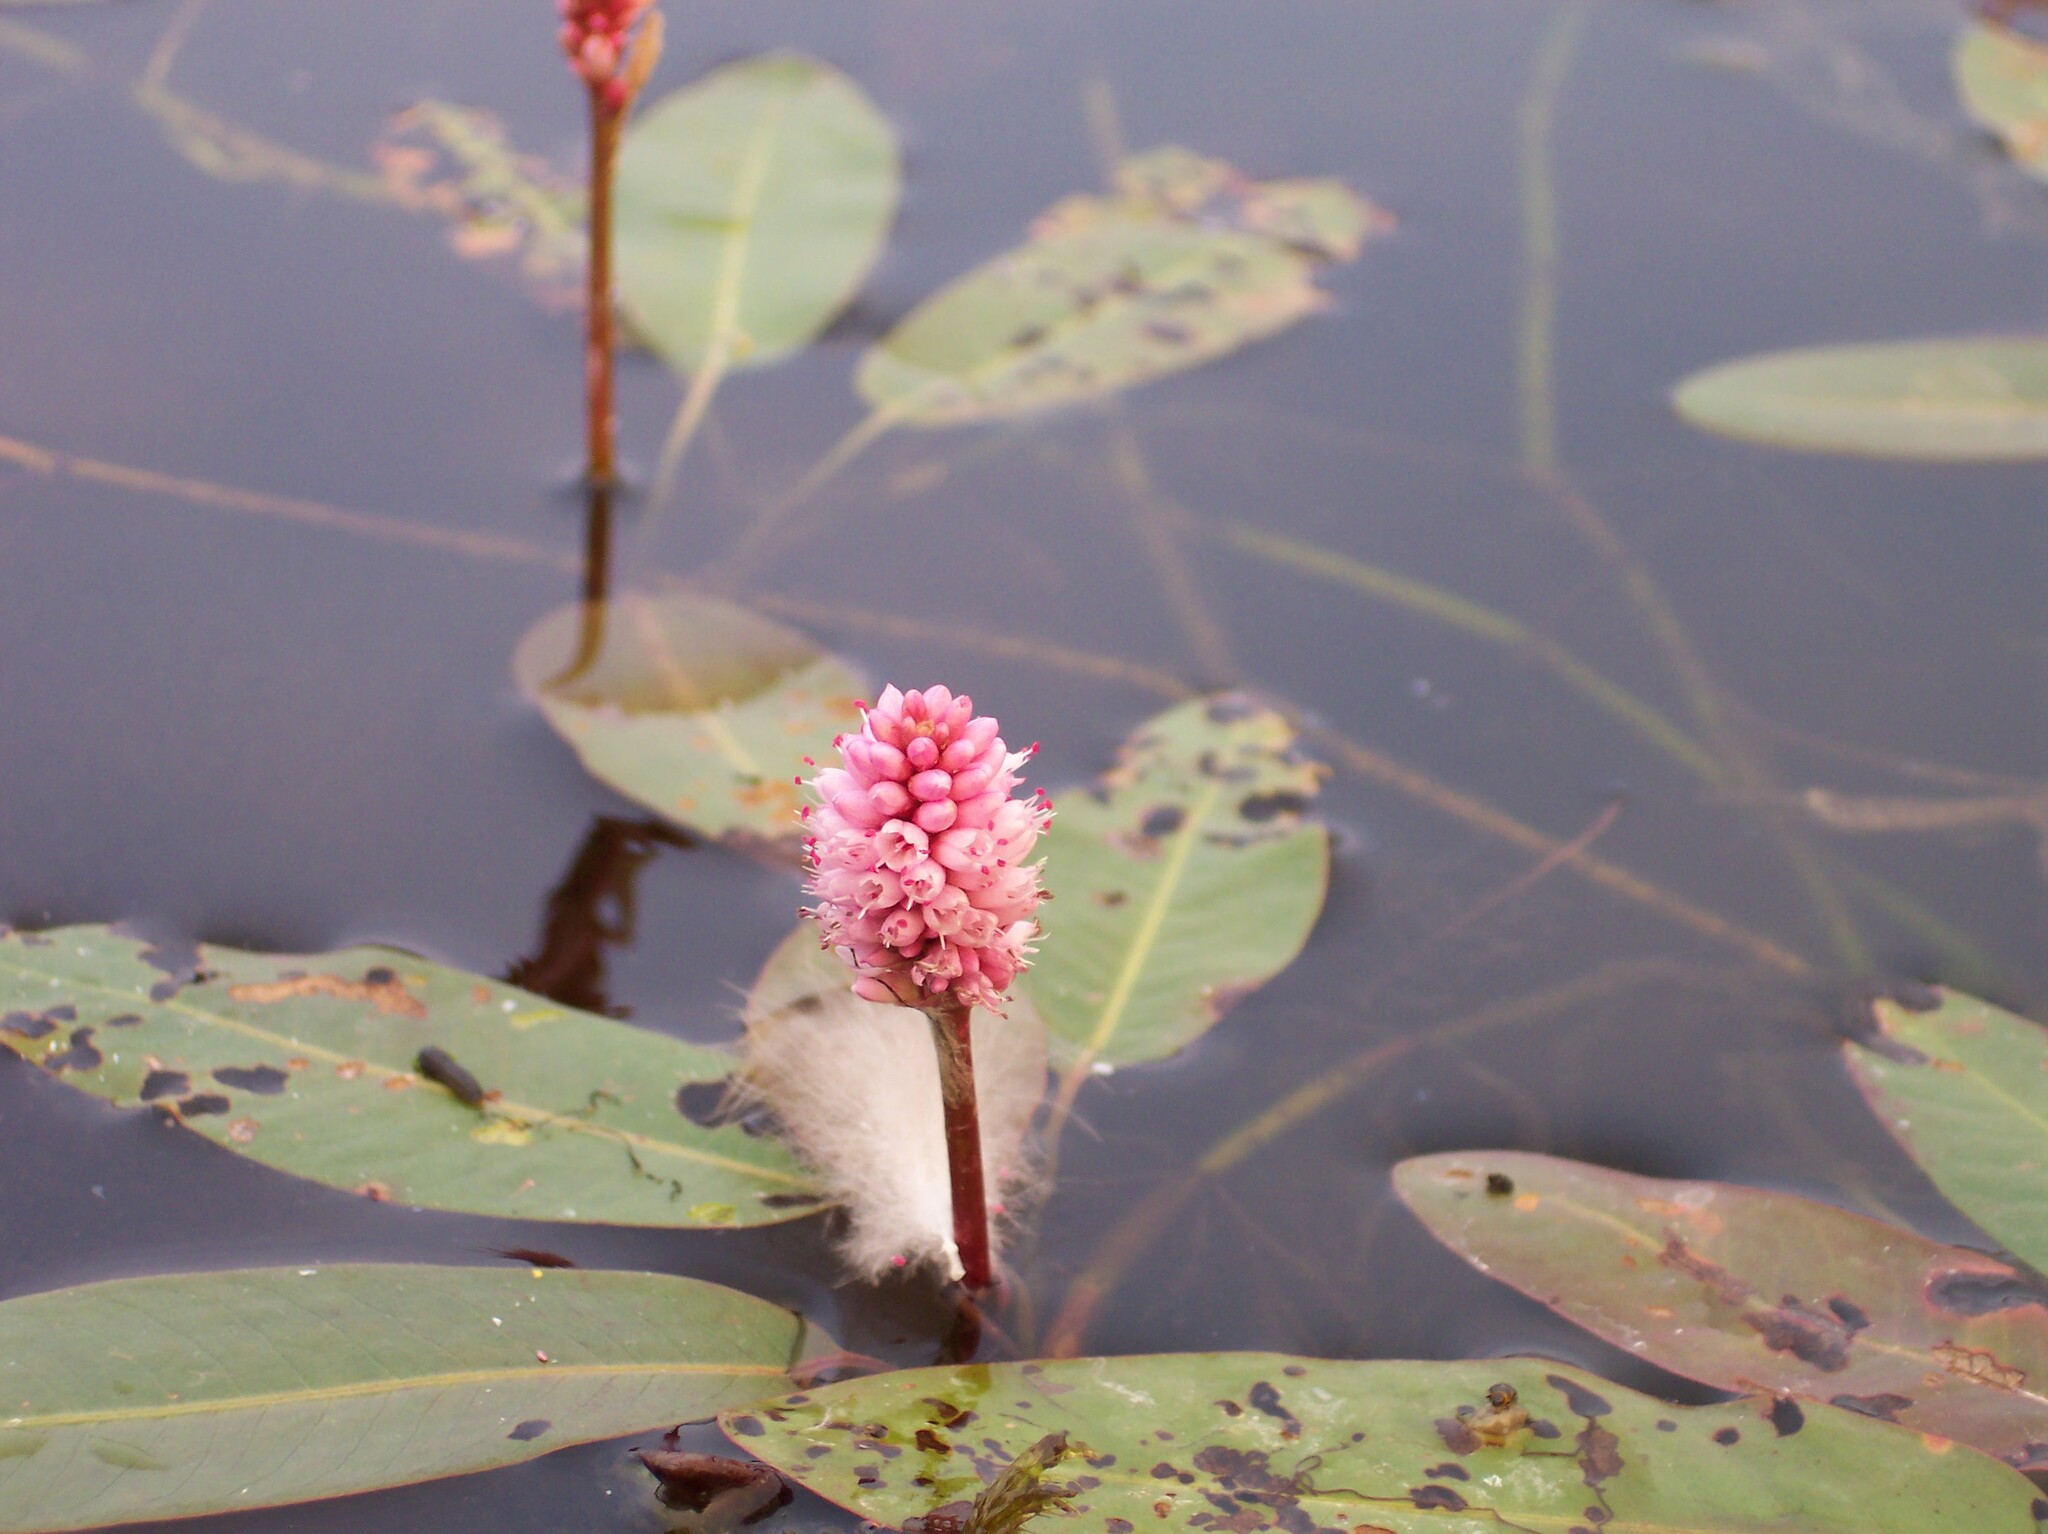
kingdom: Plantae
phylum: Tracheophyta
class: Magnoliopsida
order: Caryophyllales
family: Polygonaceae
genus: Persicaria
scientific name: Persicaria amphibia
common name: Amphibious bistort
